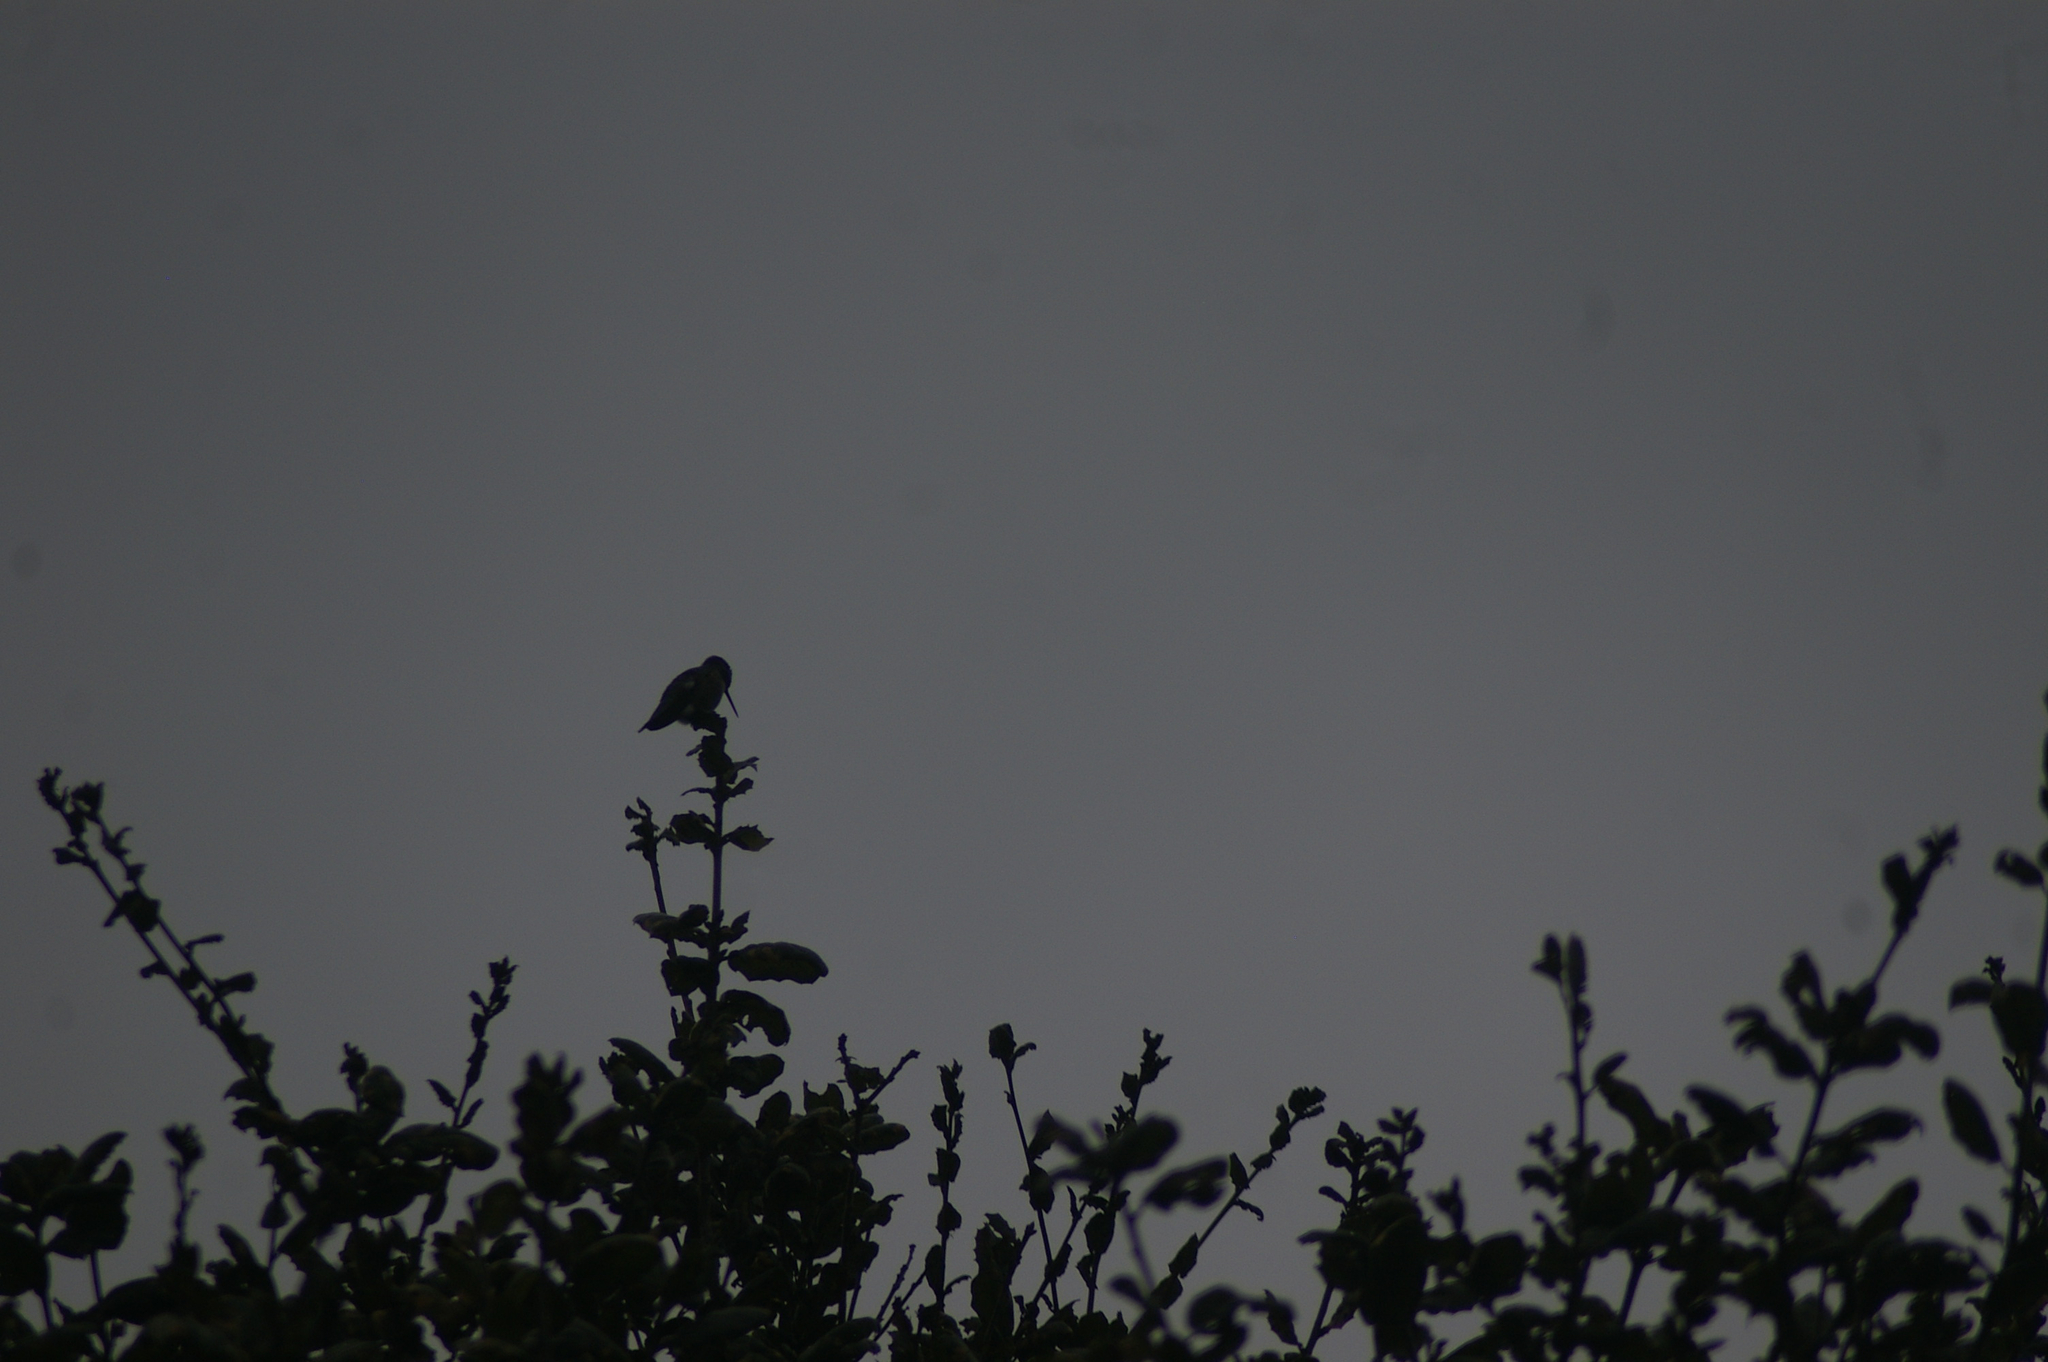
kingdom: Animalia
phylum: Chordata
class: Aves
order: Apodiformes
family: Trochilidae
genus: Calypte
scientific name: Calypte anna
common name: Anna's hummingbird
